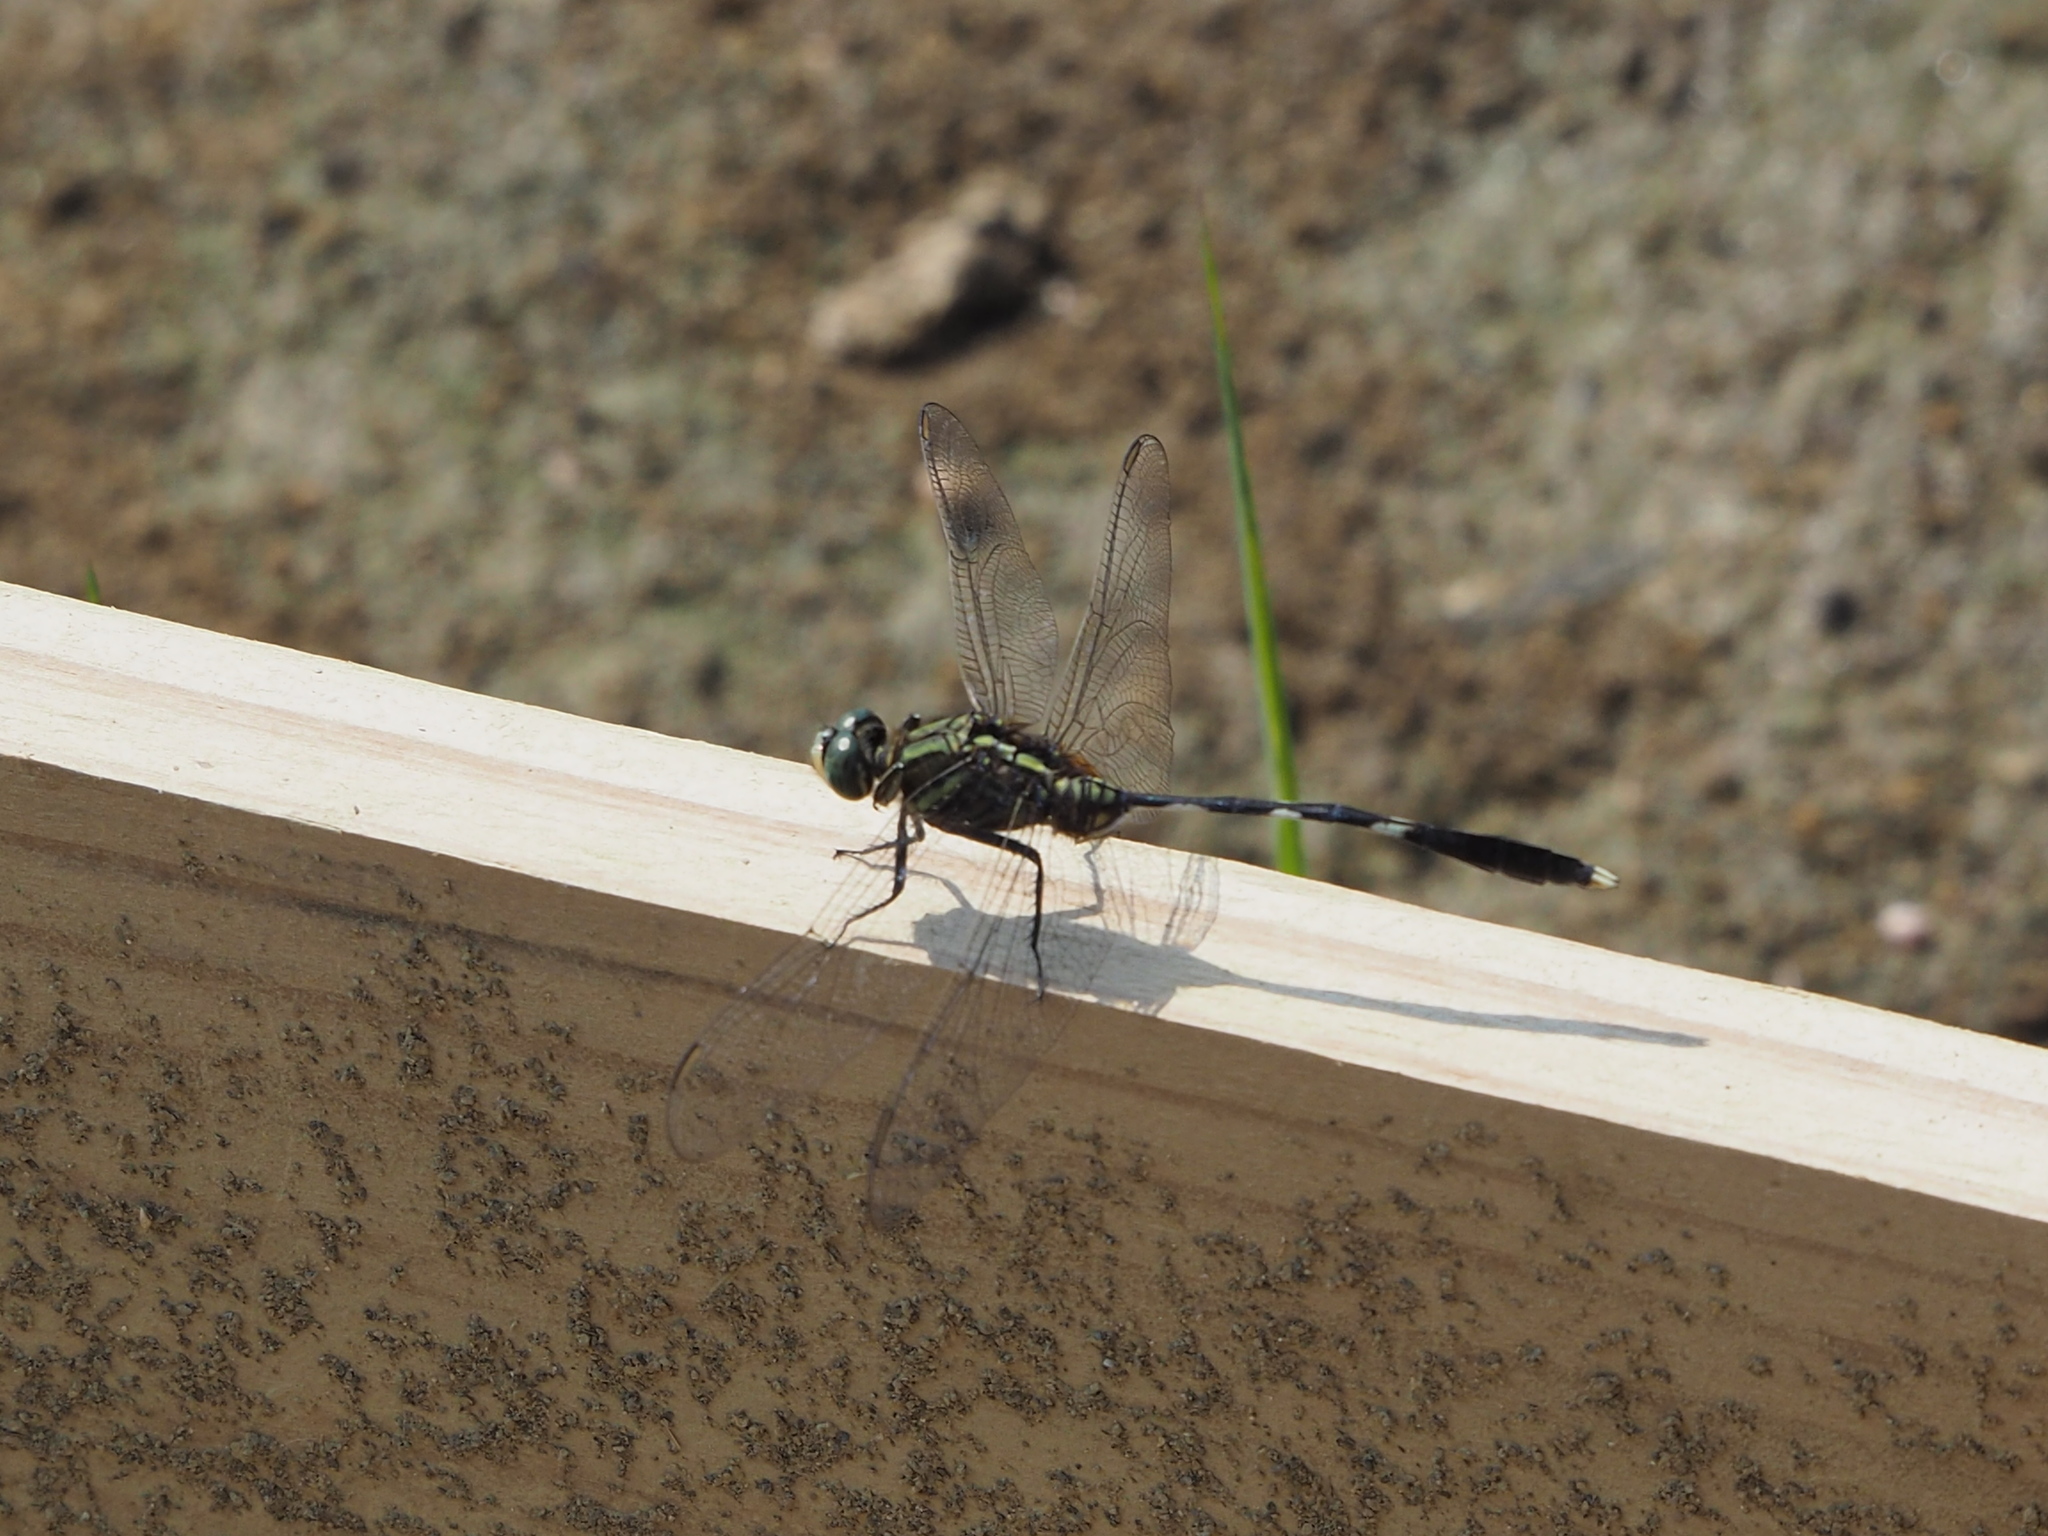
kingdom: Animalia
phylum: Arthropoda
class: Insecta
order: Odonata
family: Libellulidae
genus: Orthetrum
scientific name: Orthetrum sabina
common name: Slender skimmer
